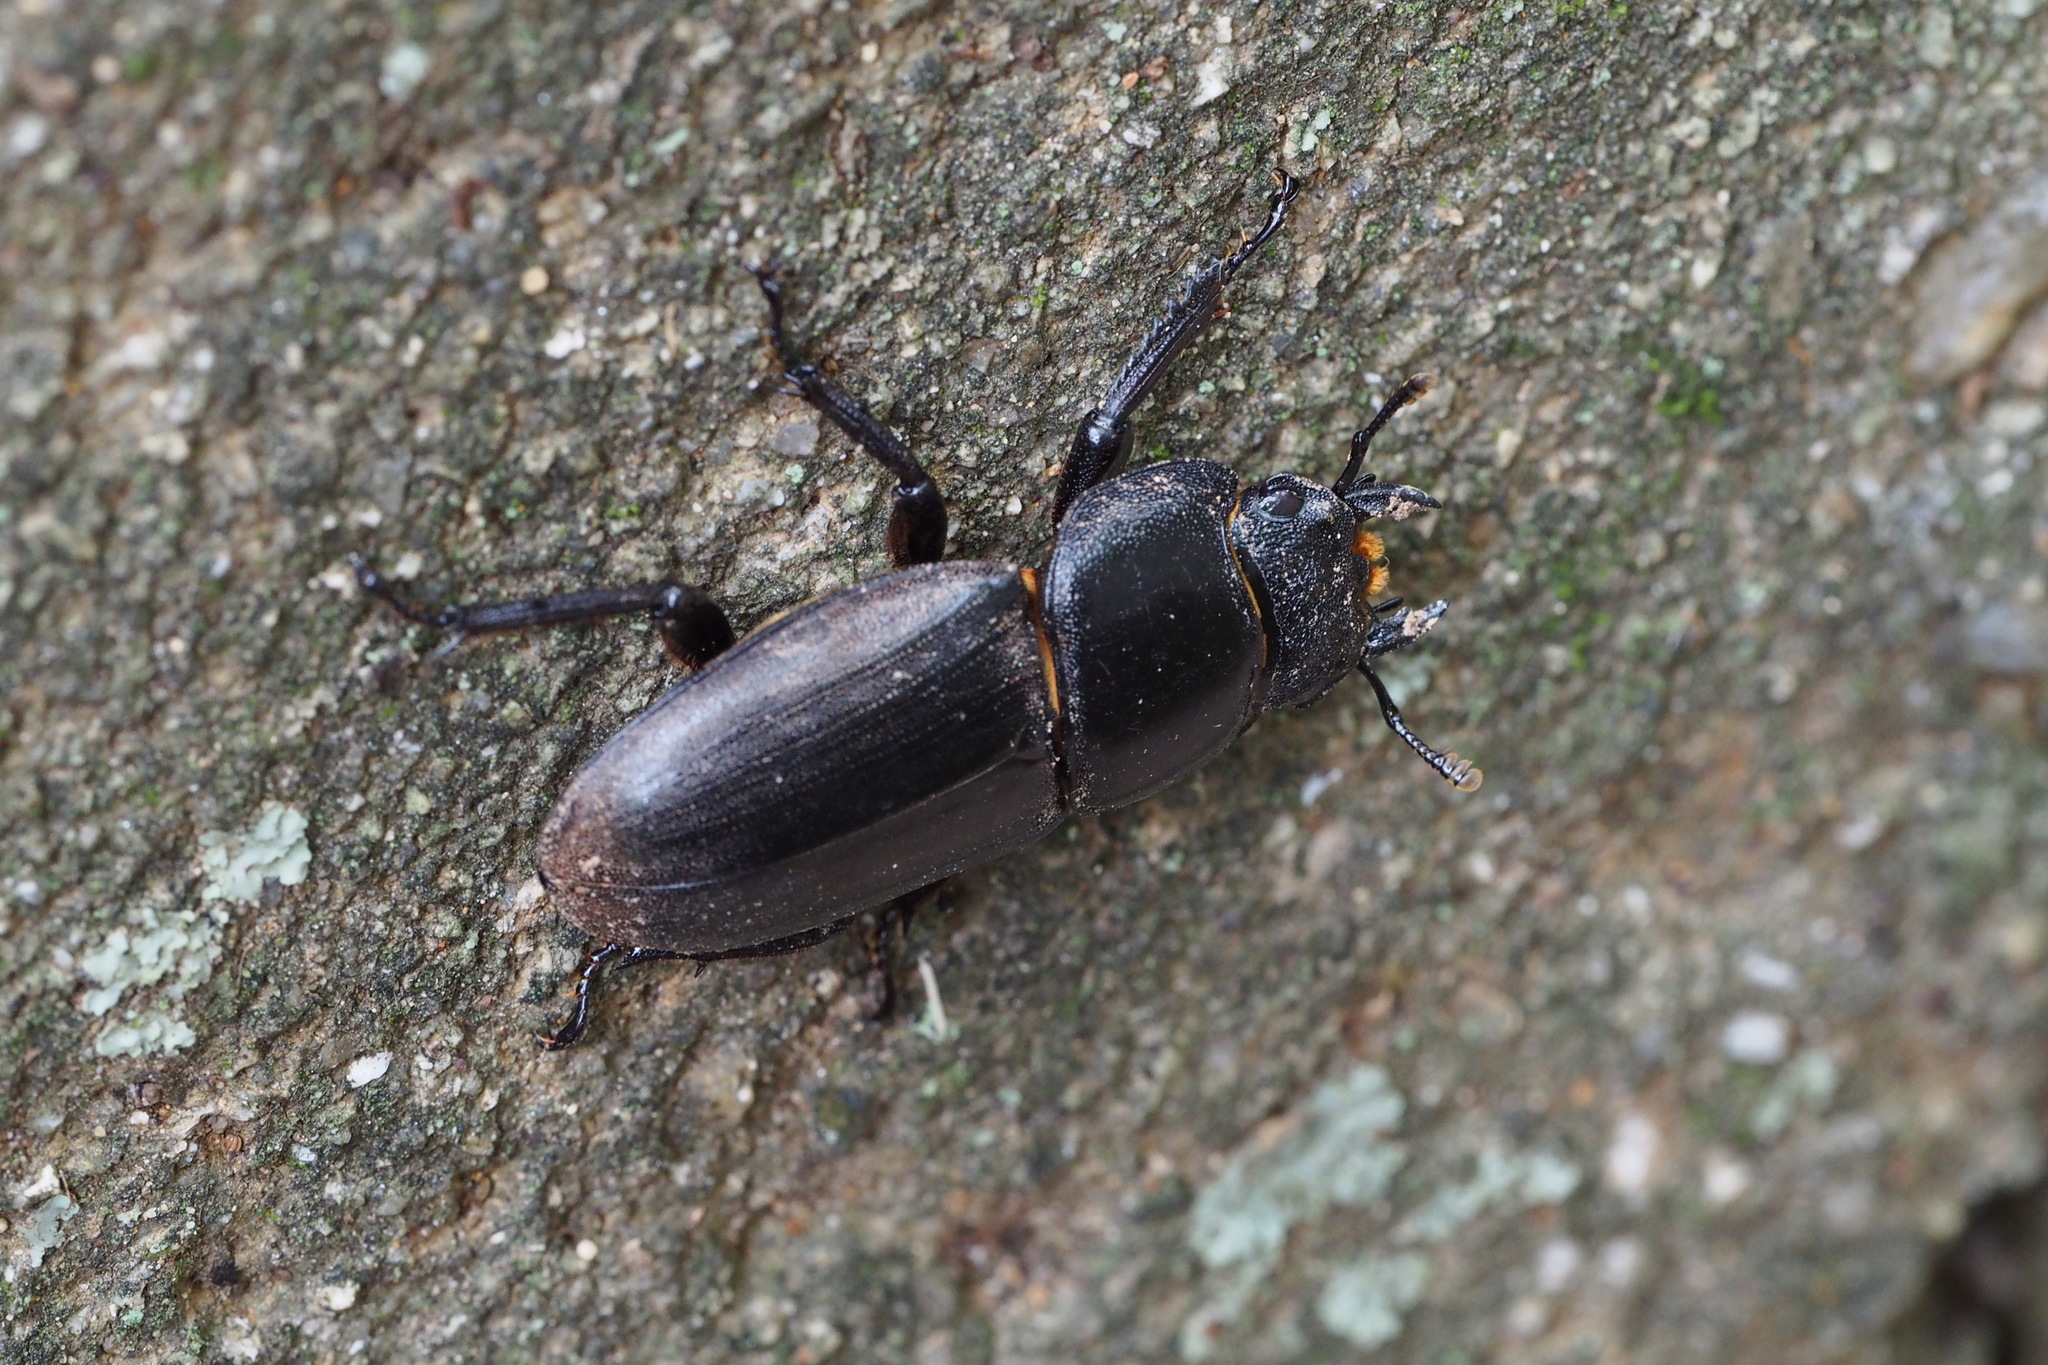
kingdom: Animalia
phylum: Arthropoda
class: Insecta
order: Coleoptera
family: Lucanidae
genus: Dorcus
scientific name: Dorcus rectus
